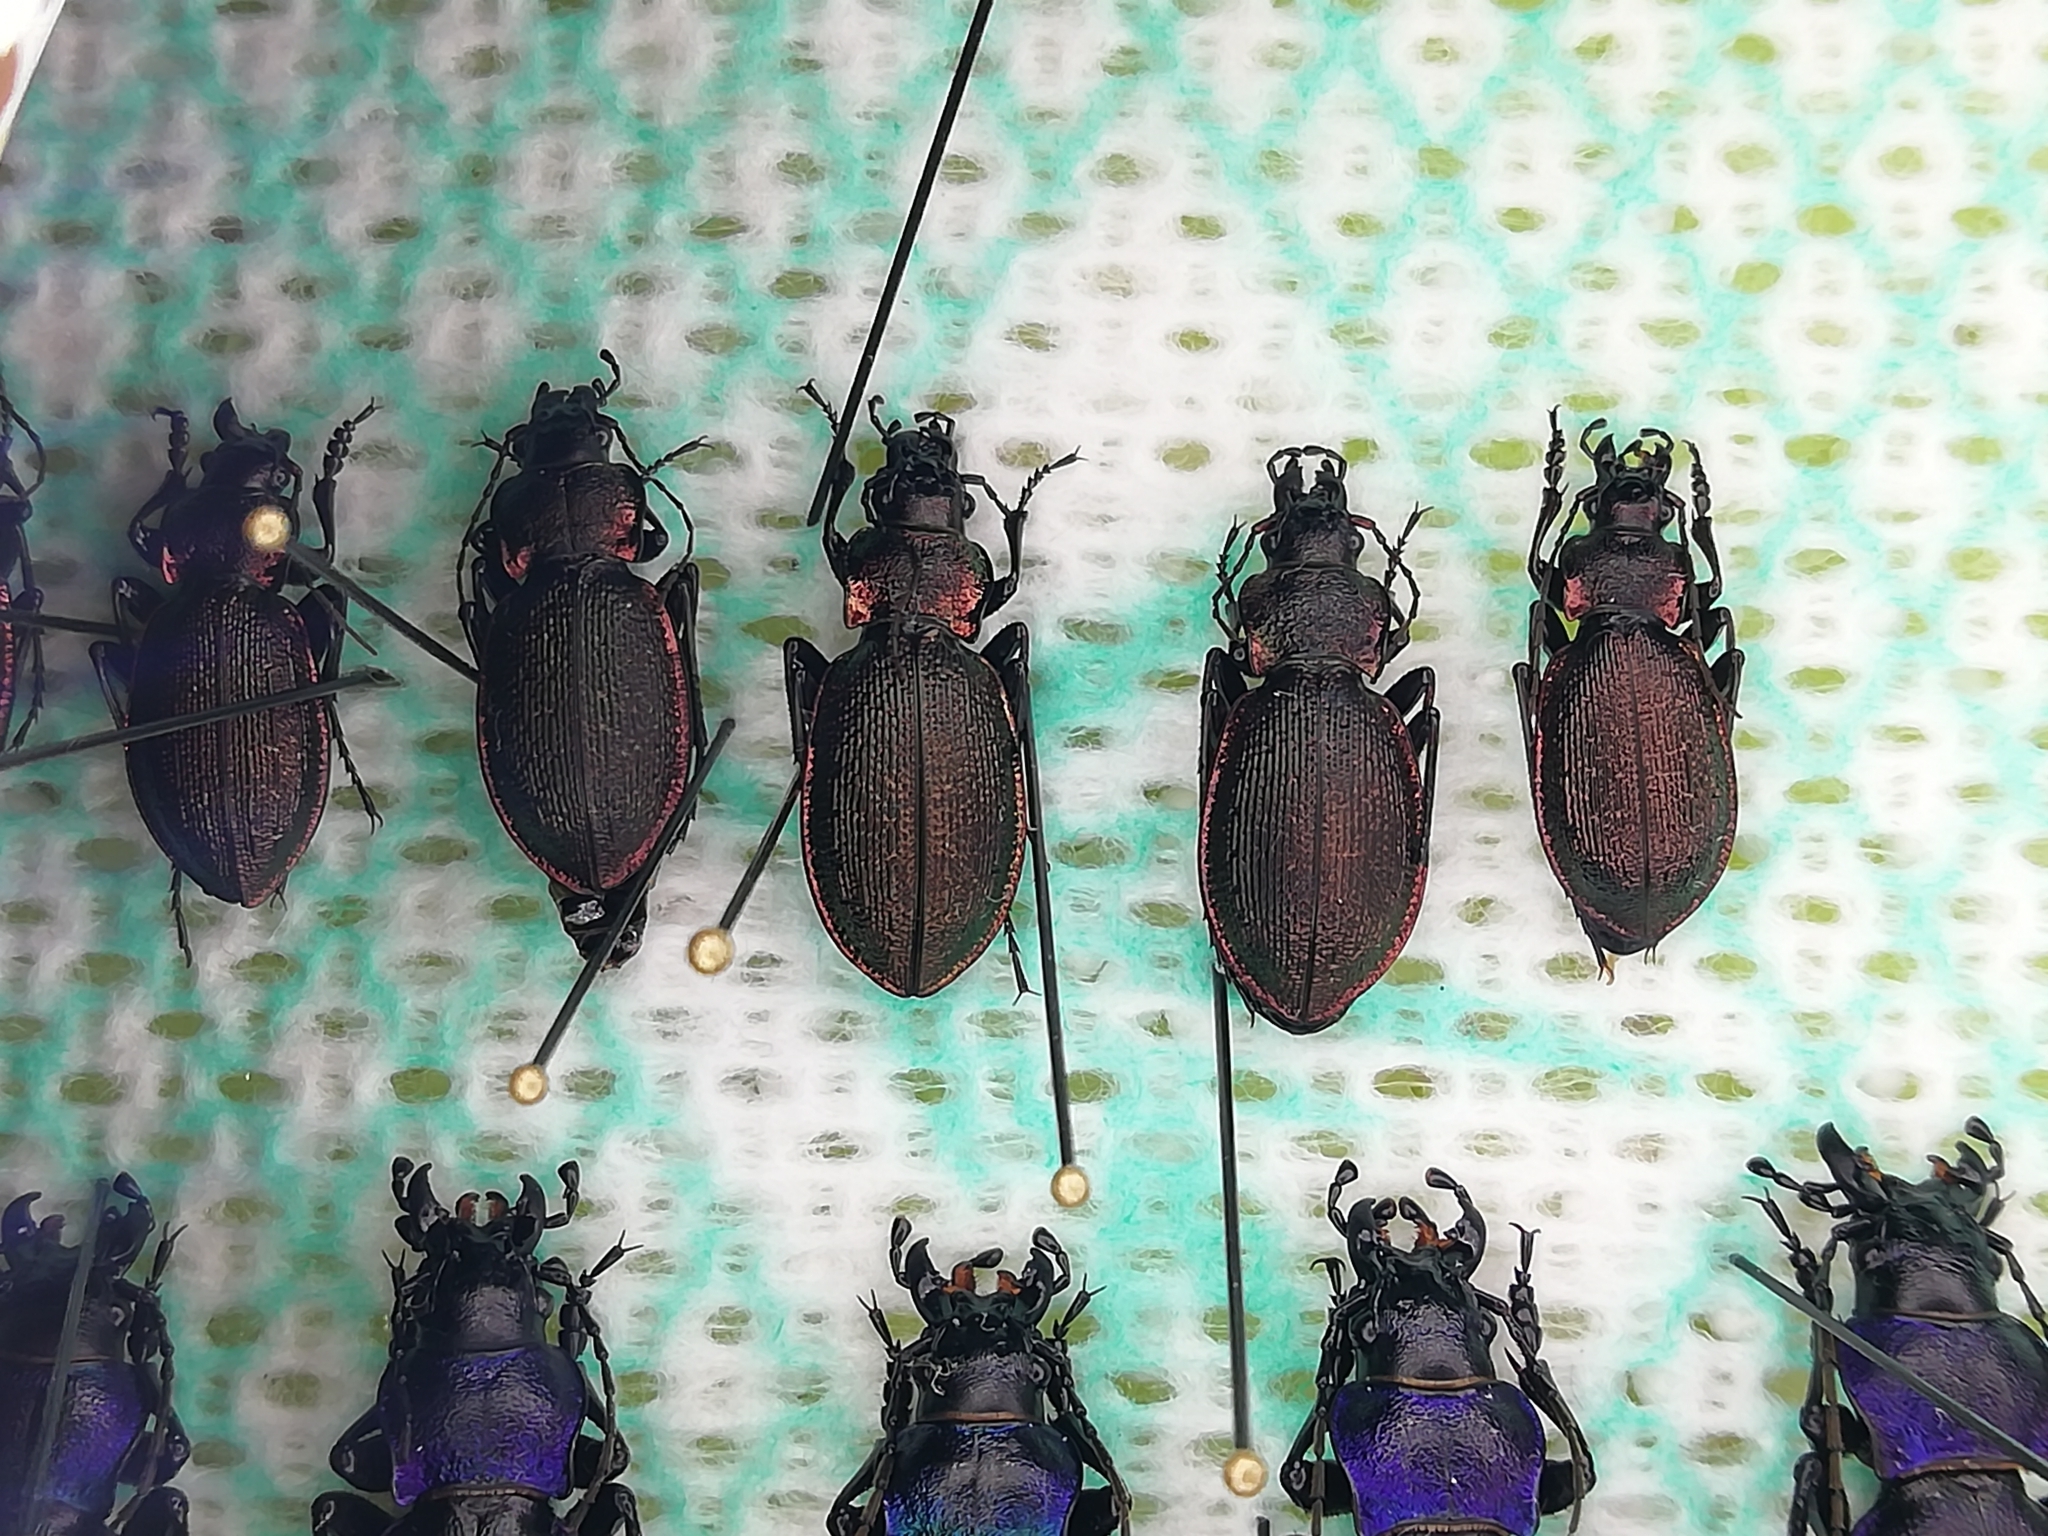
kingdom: Animalia
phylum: Arthropoda
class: Insecta
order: Coleoptera
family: Carabidae
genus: Carabus
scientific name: Carabus leachii
